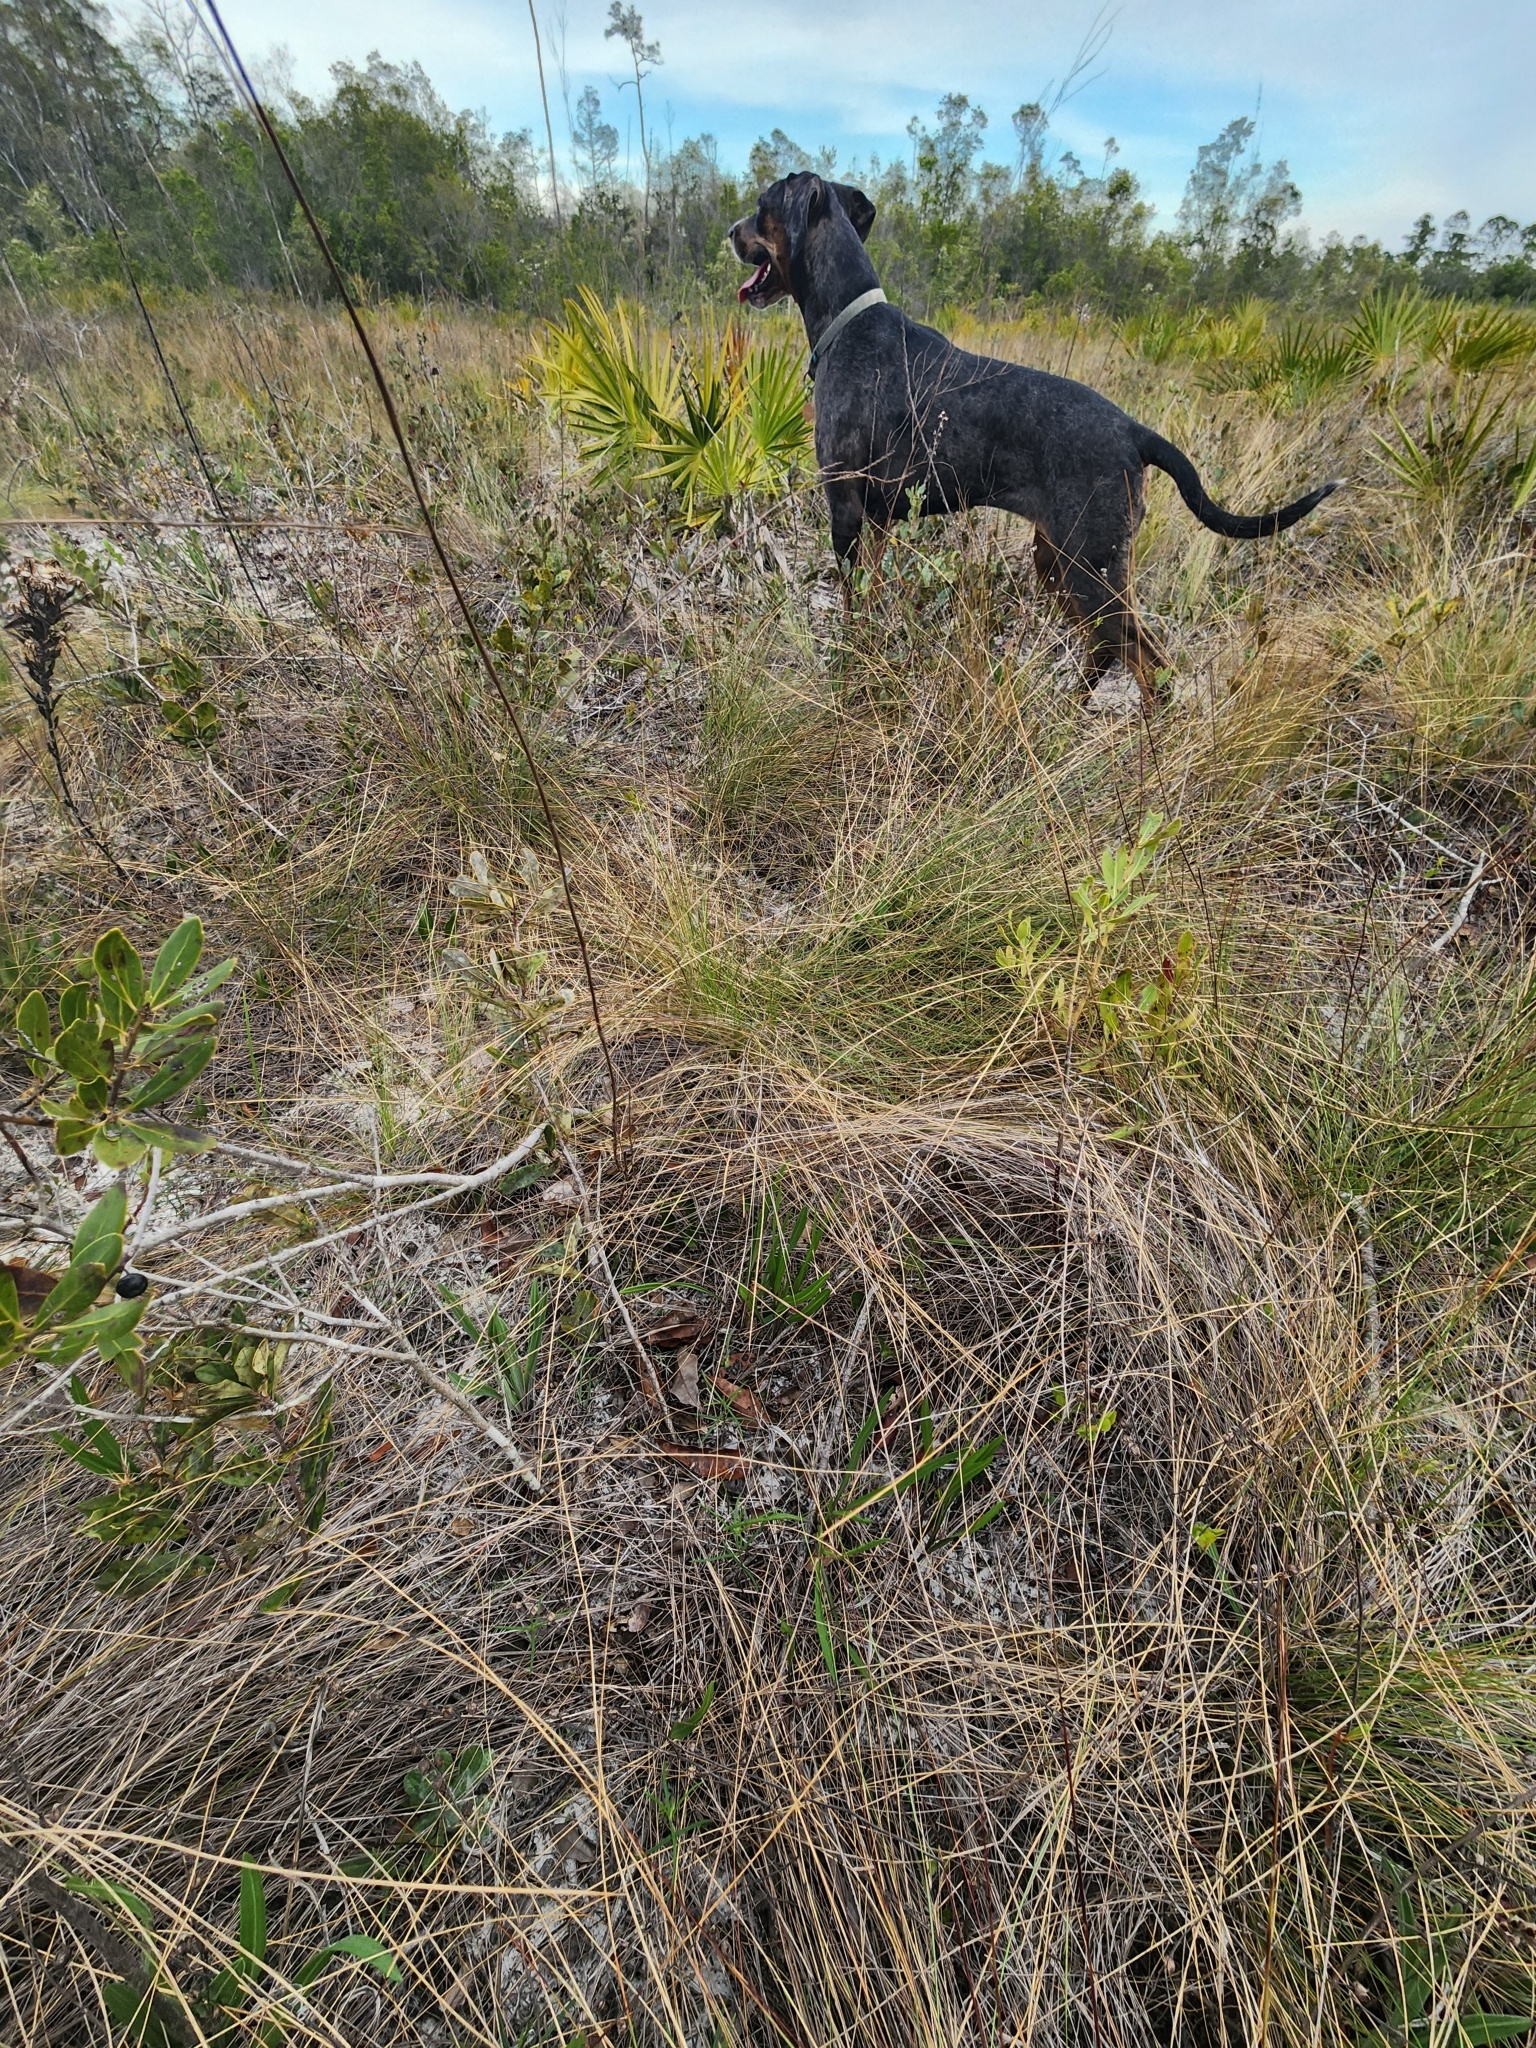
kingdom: Plantae
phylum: Tracheophyta
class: Magnoliopsida
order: Asterales
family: Asteraceae
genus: Phoebanthus
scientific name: Phoebanthus tenuifolia
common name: Pineland false sunflower
